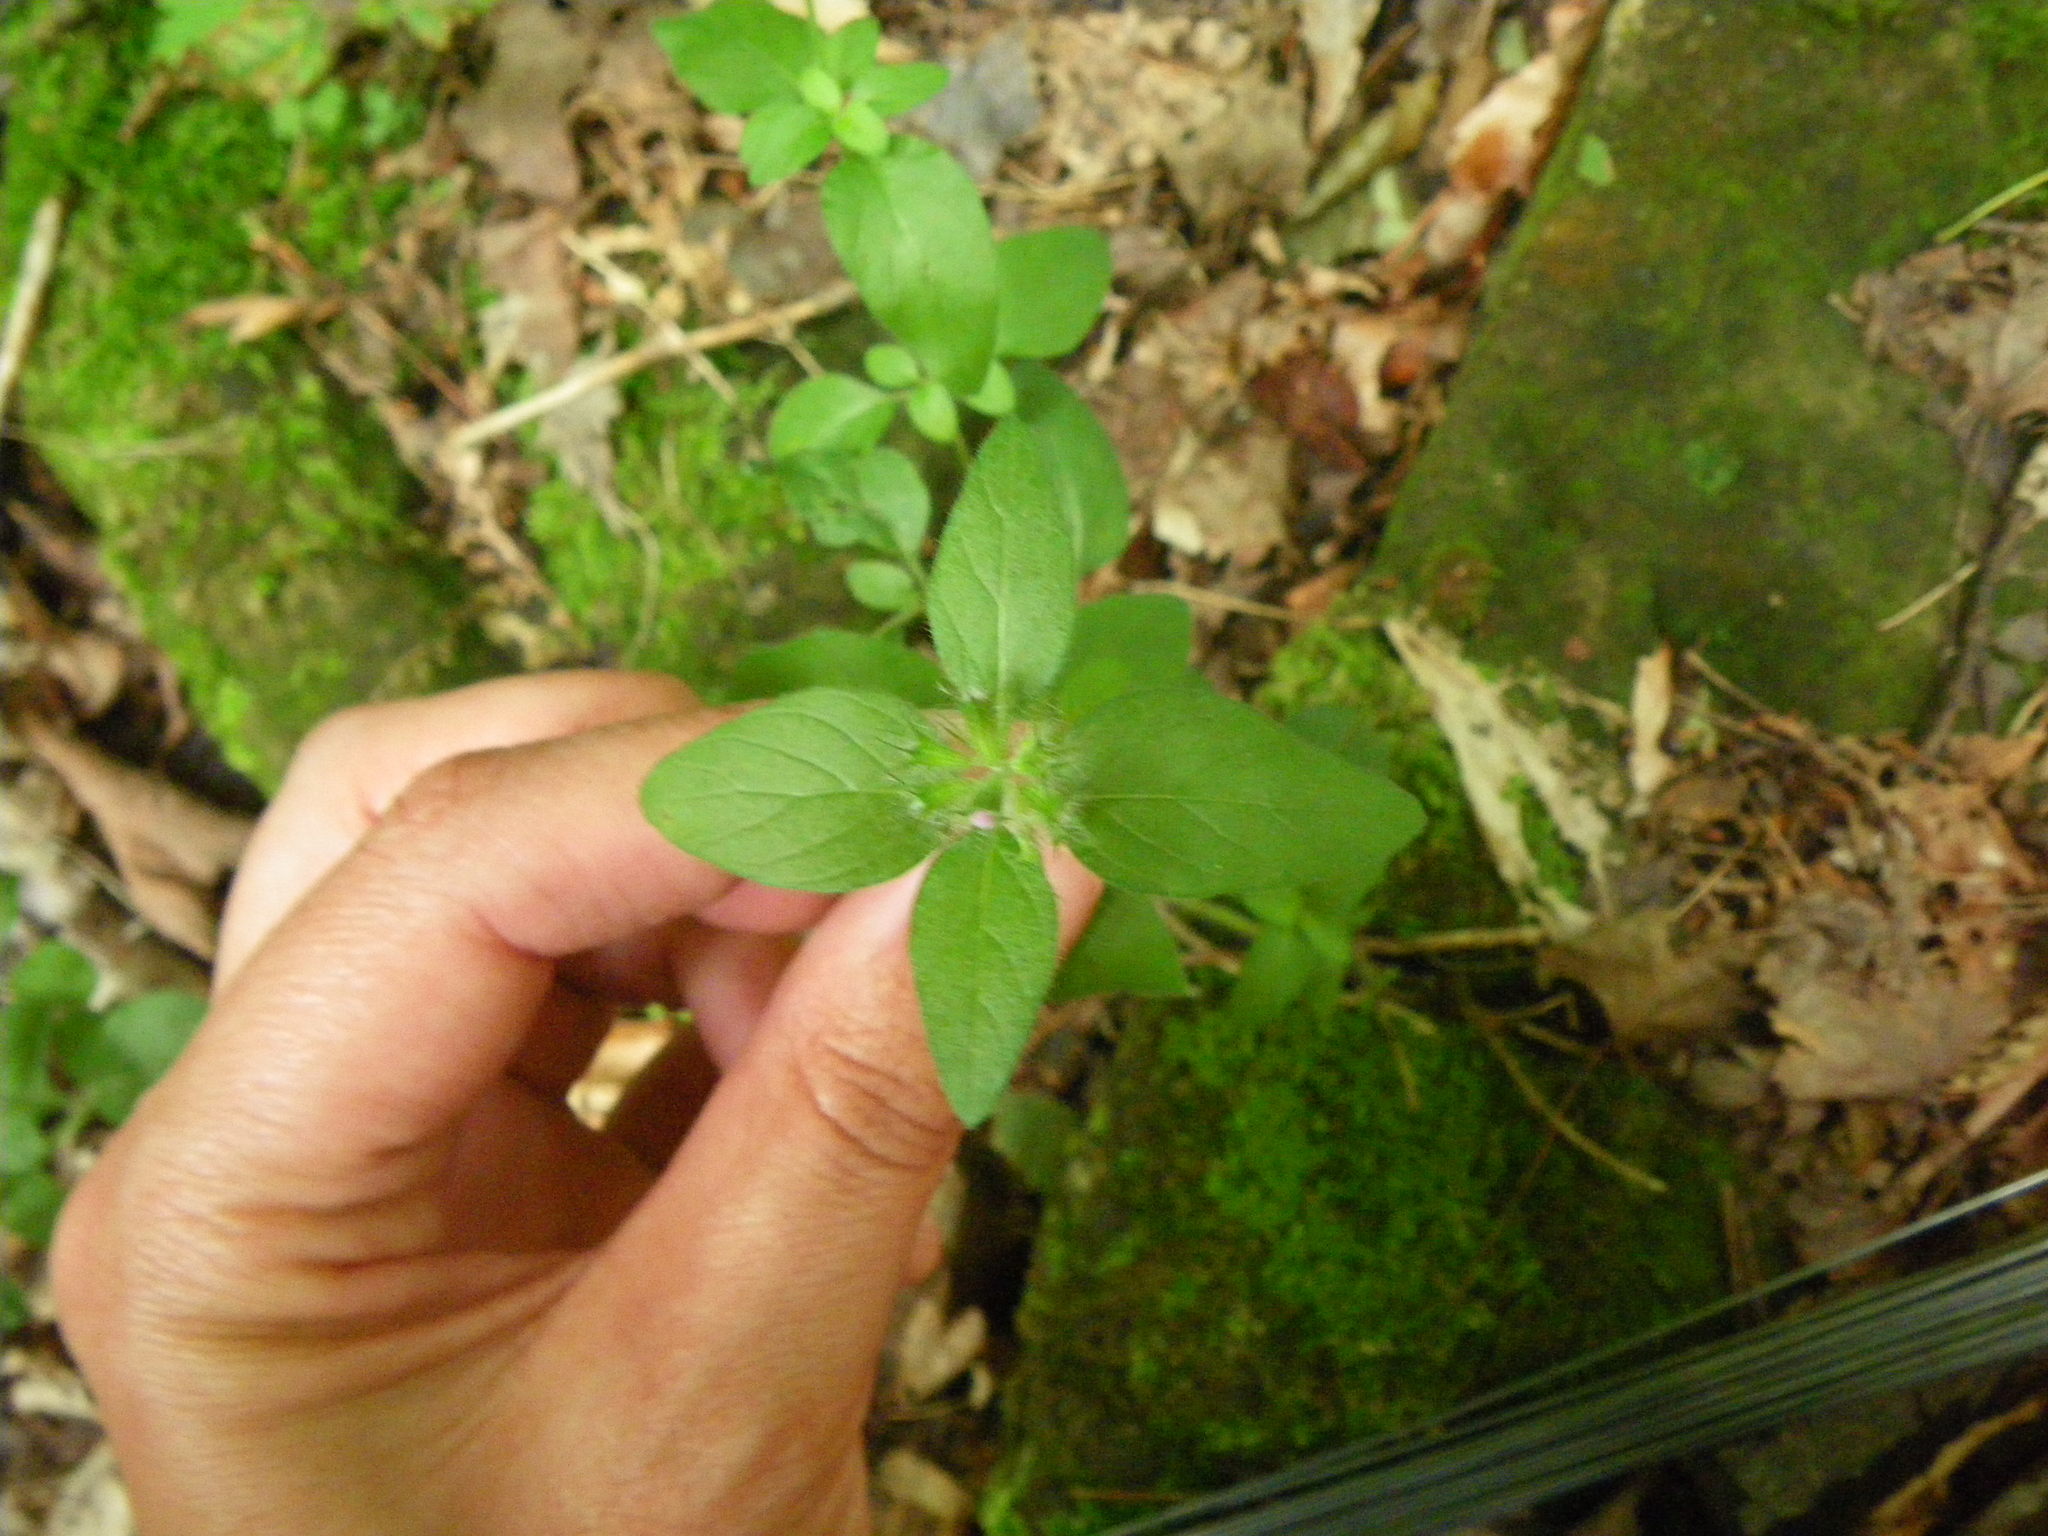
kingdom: Plantae
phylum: Tracheophyta
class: Magnoliopsida
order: Lamiales
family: Lamiaceae
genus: Clinopodium
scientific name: Clinopodium vulgare
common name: Wild basil
